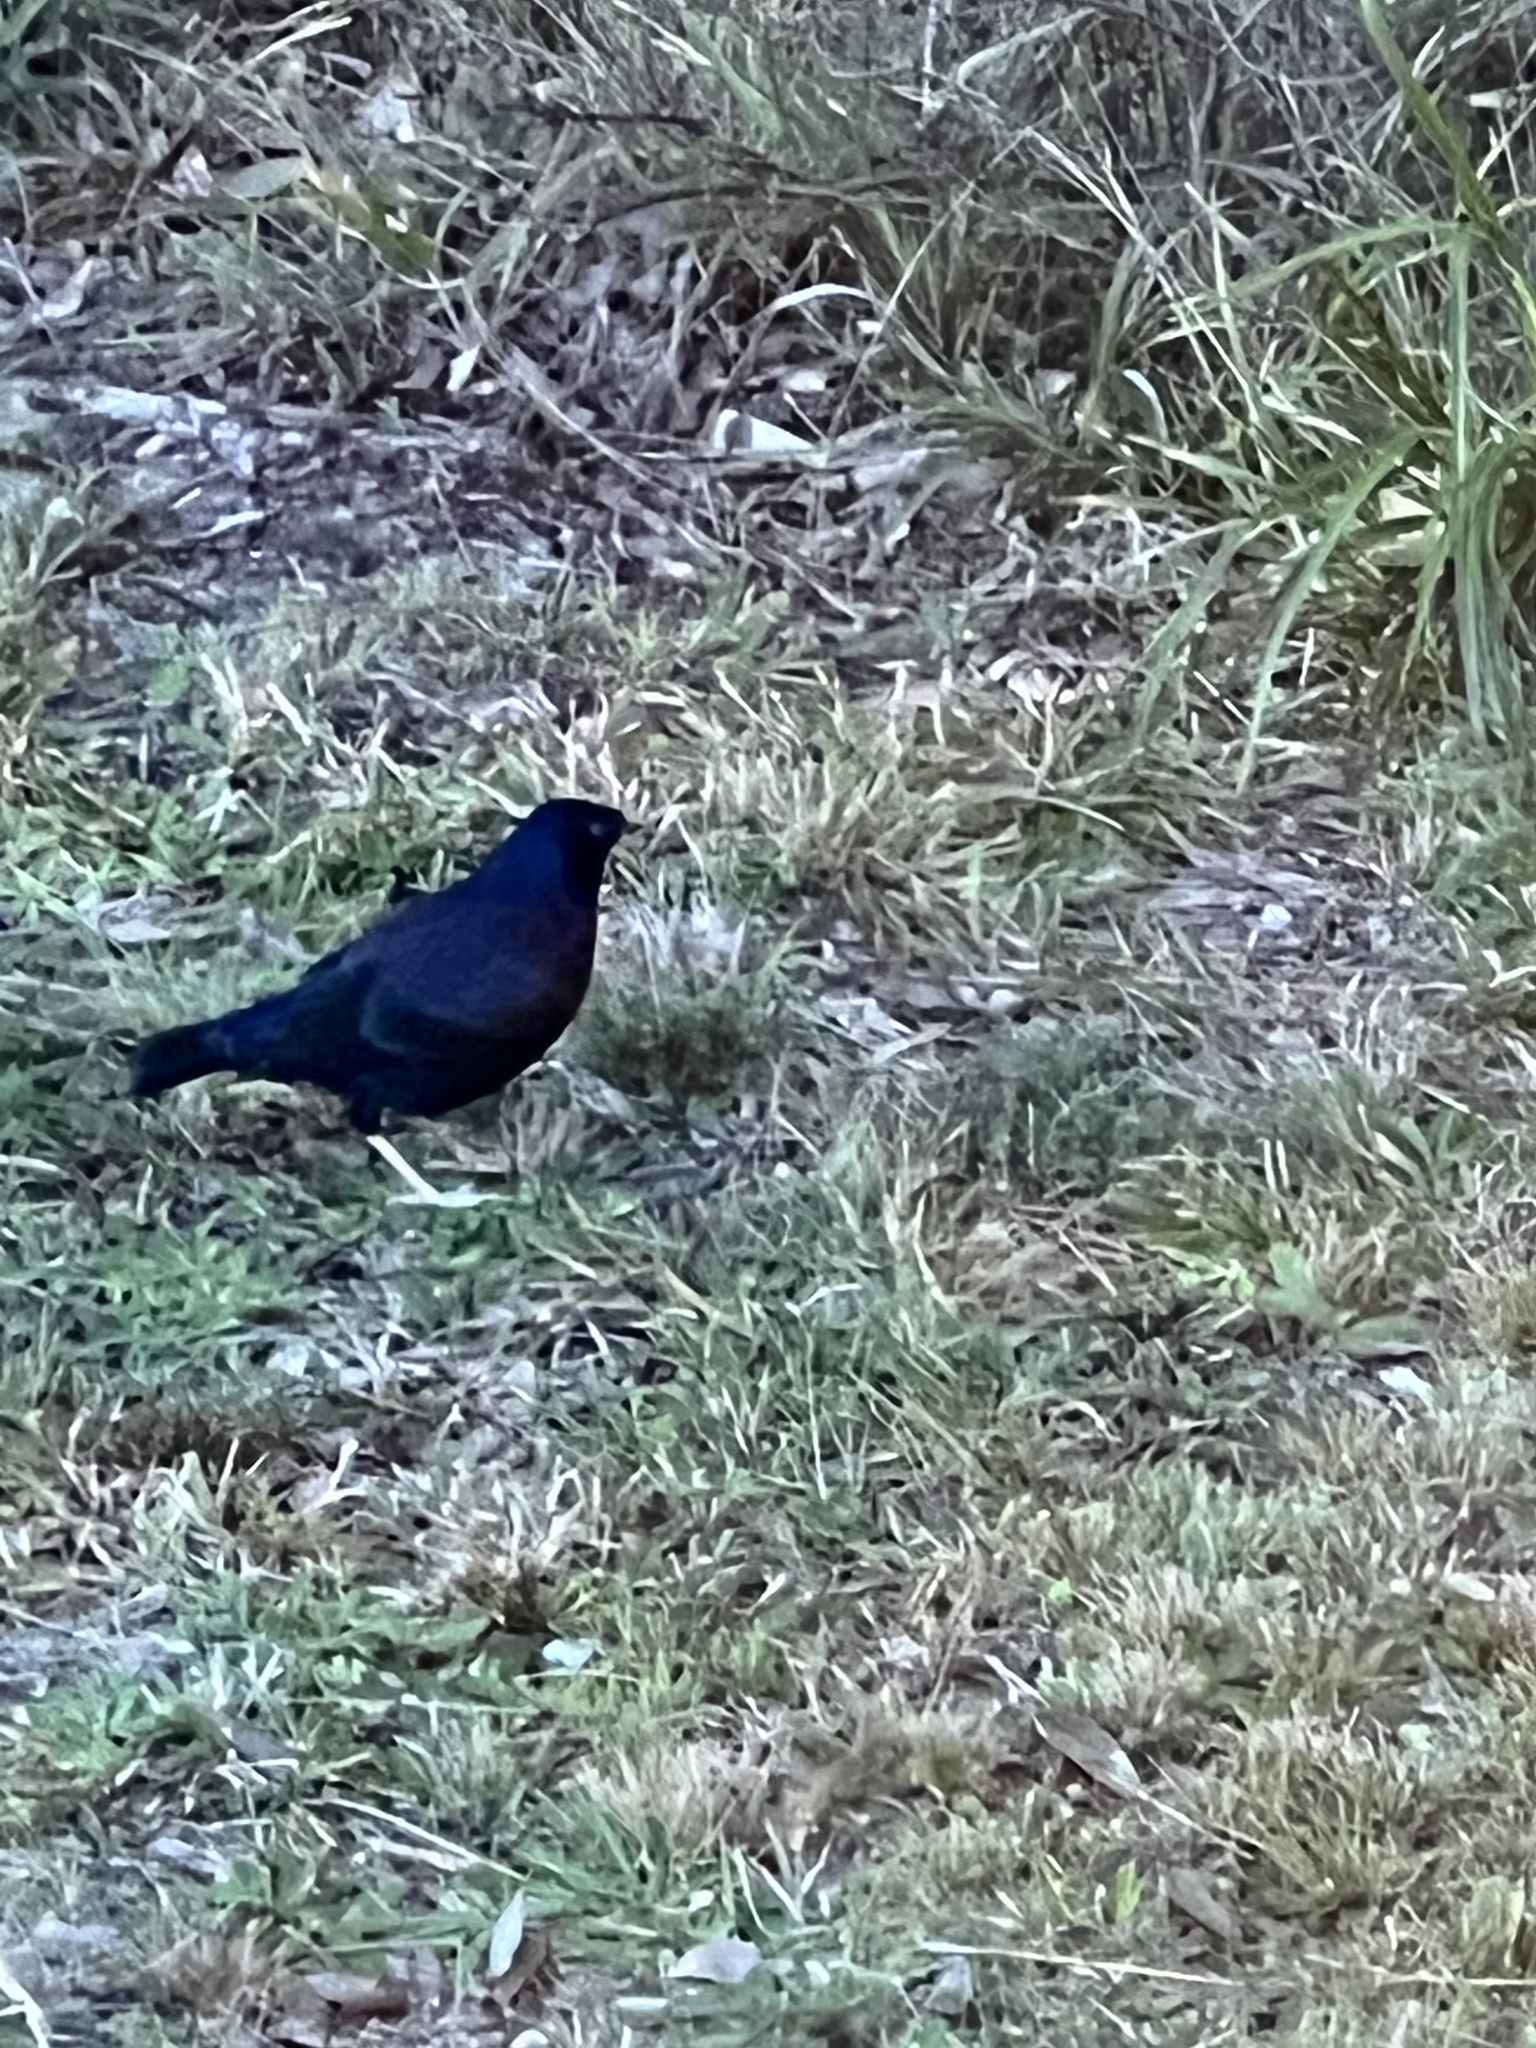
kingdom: Animalia
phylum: Chordata
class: Aves
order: Passeriformes
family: Ptilonorhynchidae
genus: Ptilonorhynchus
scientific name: Ptilonorhynchus violaceus
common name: Satin bowerbird
